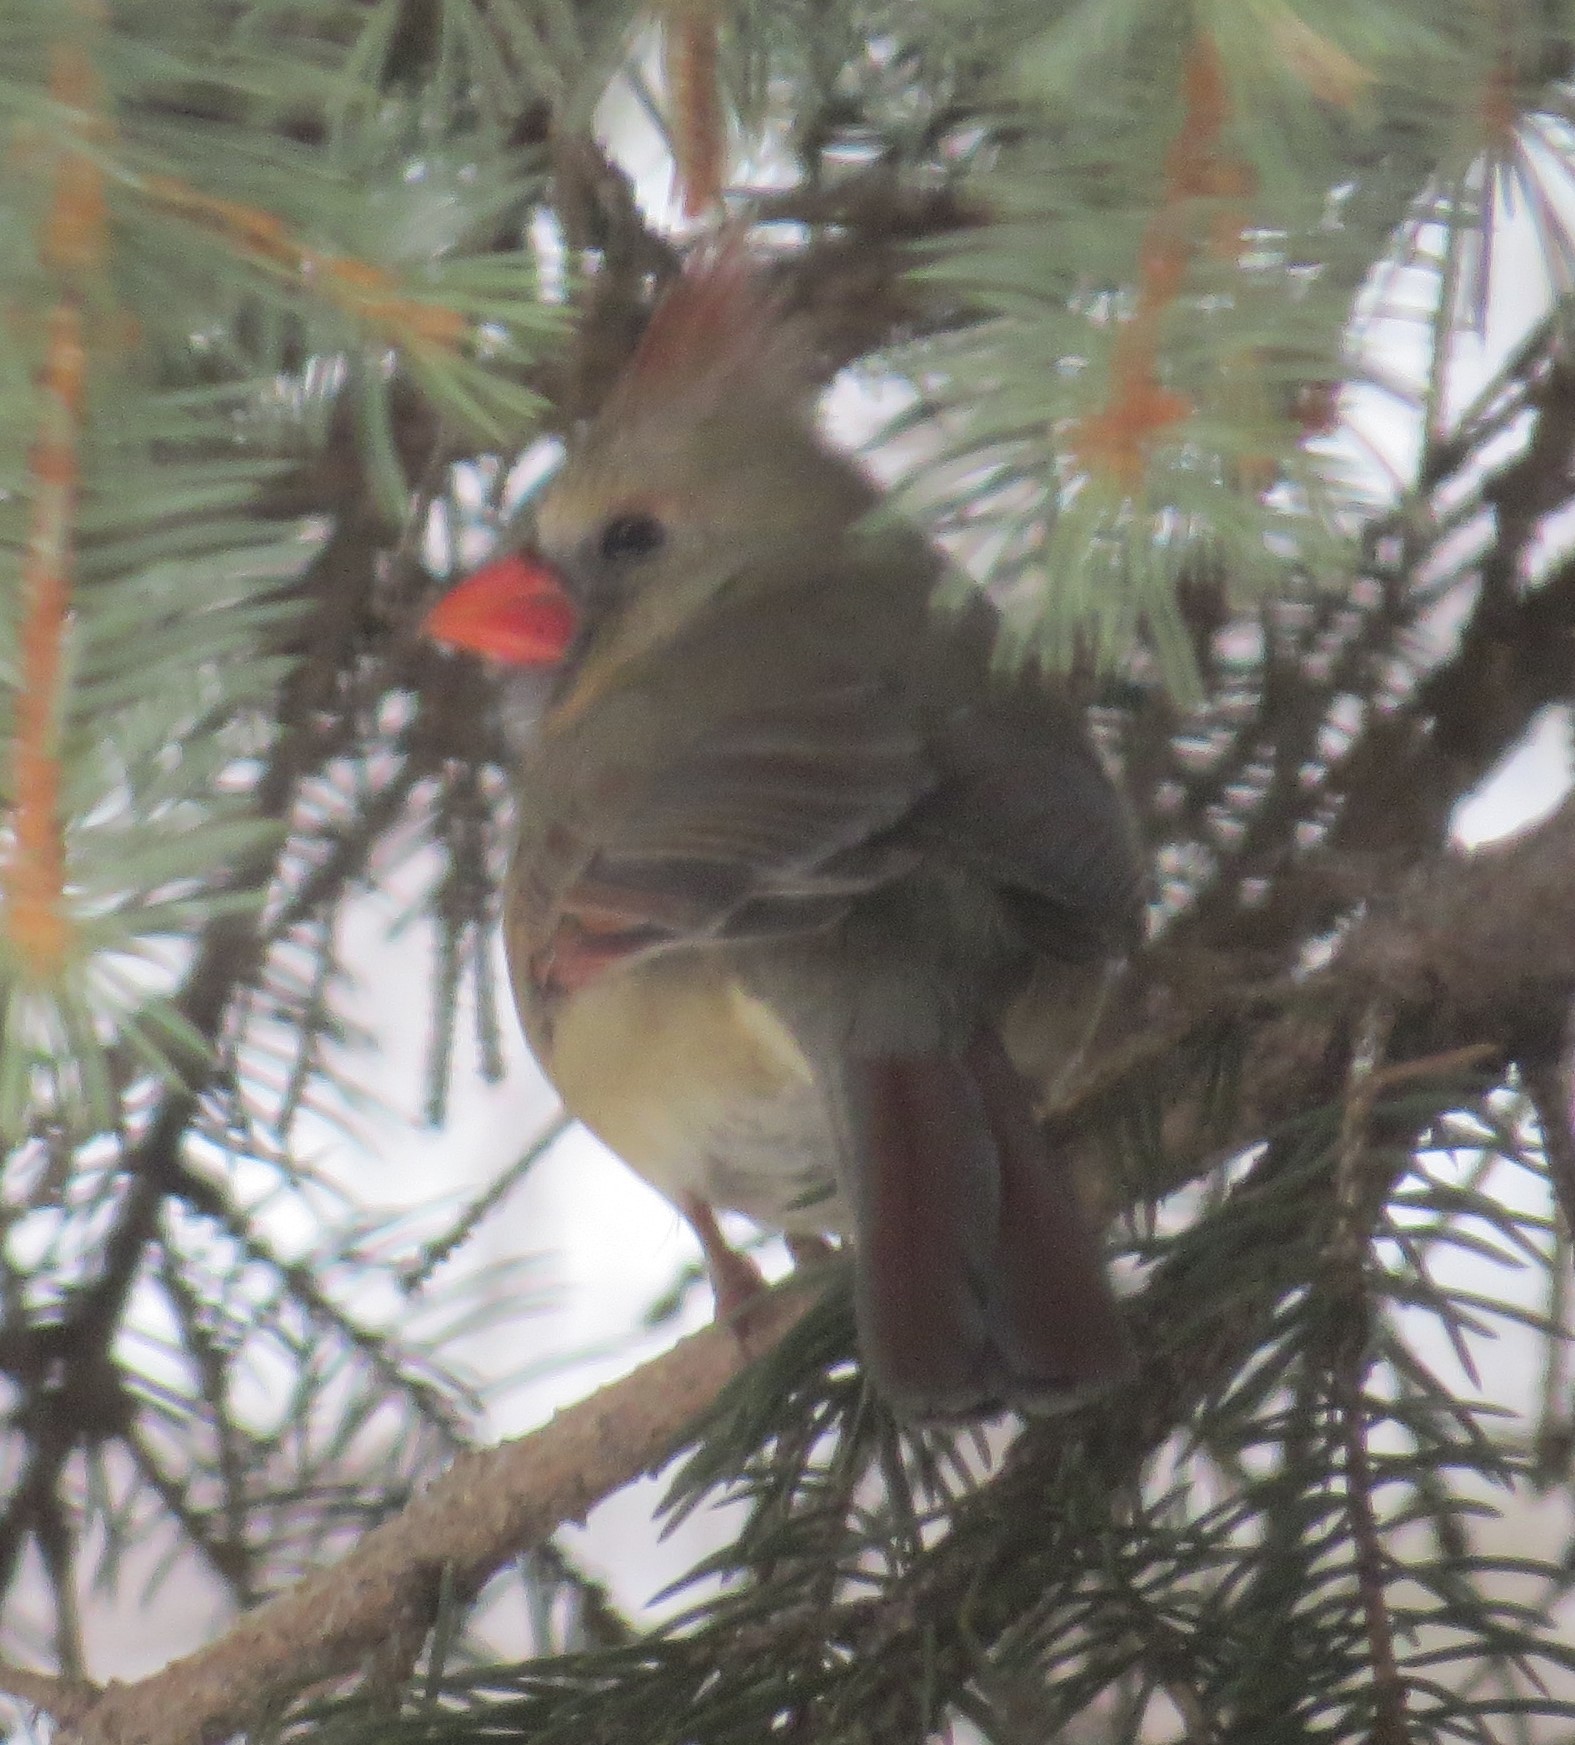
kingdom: Animalia
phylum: Chordata
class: Aves
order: Passeriformes
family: Cardinalidae
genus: Cardinalis
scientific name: Cardinalis cardinalis
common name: Northern cardinal
